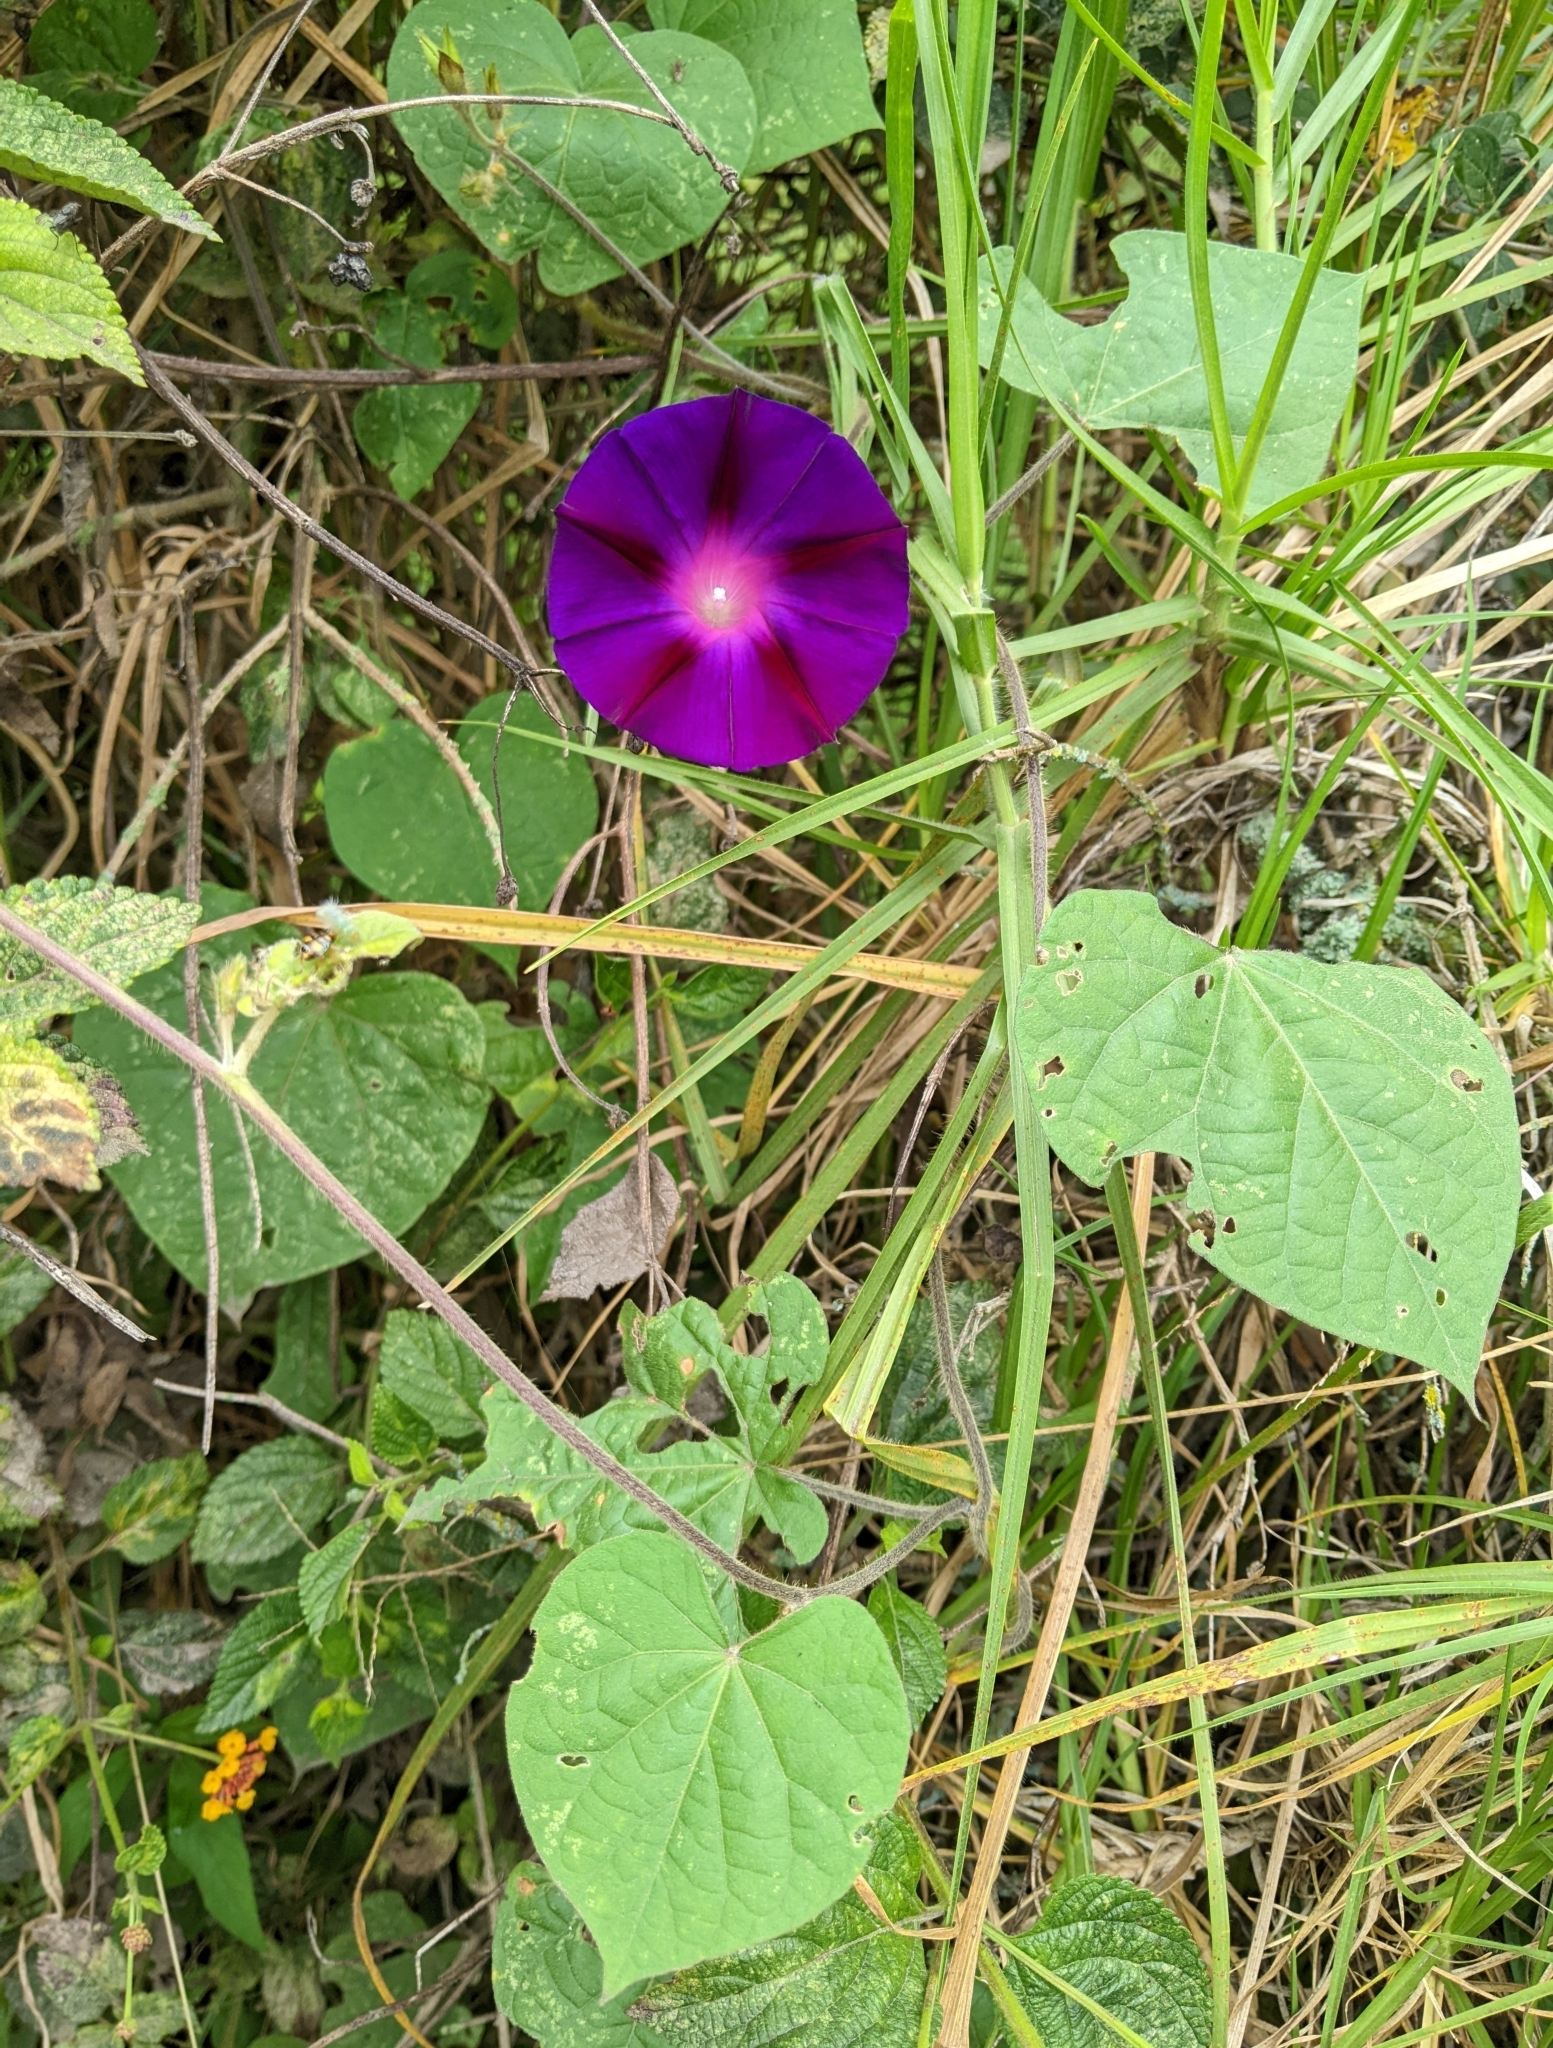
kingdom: Plantae
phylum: Tracheophyta
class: Magnoliopsida
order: Solanales
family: Convolvulaceae
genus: Ipomoea
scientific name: Ipomoea purpurea
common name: Common morning-glory
